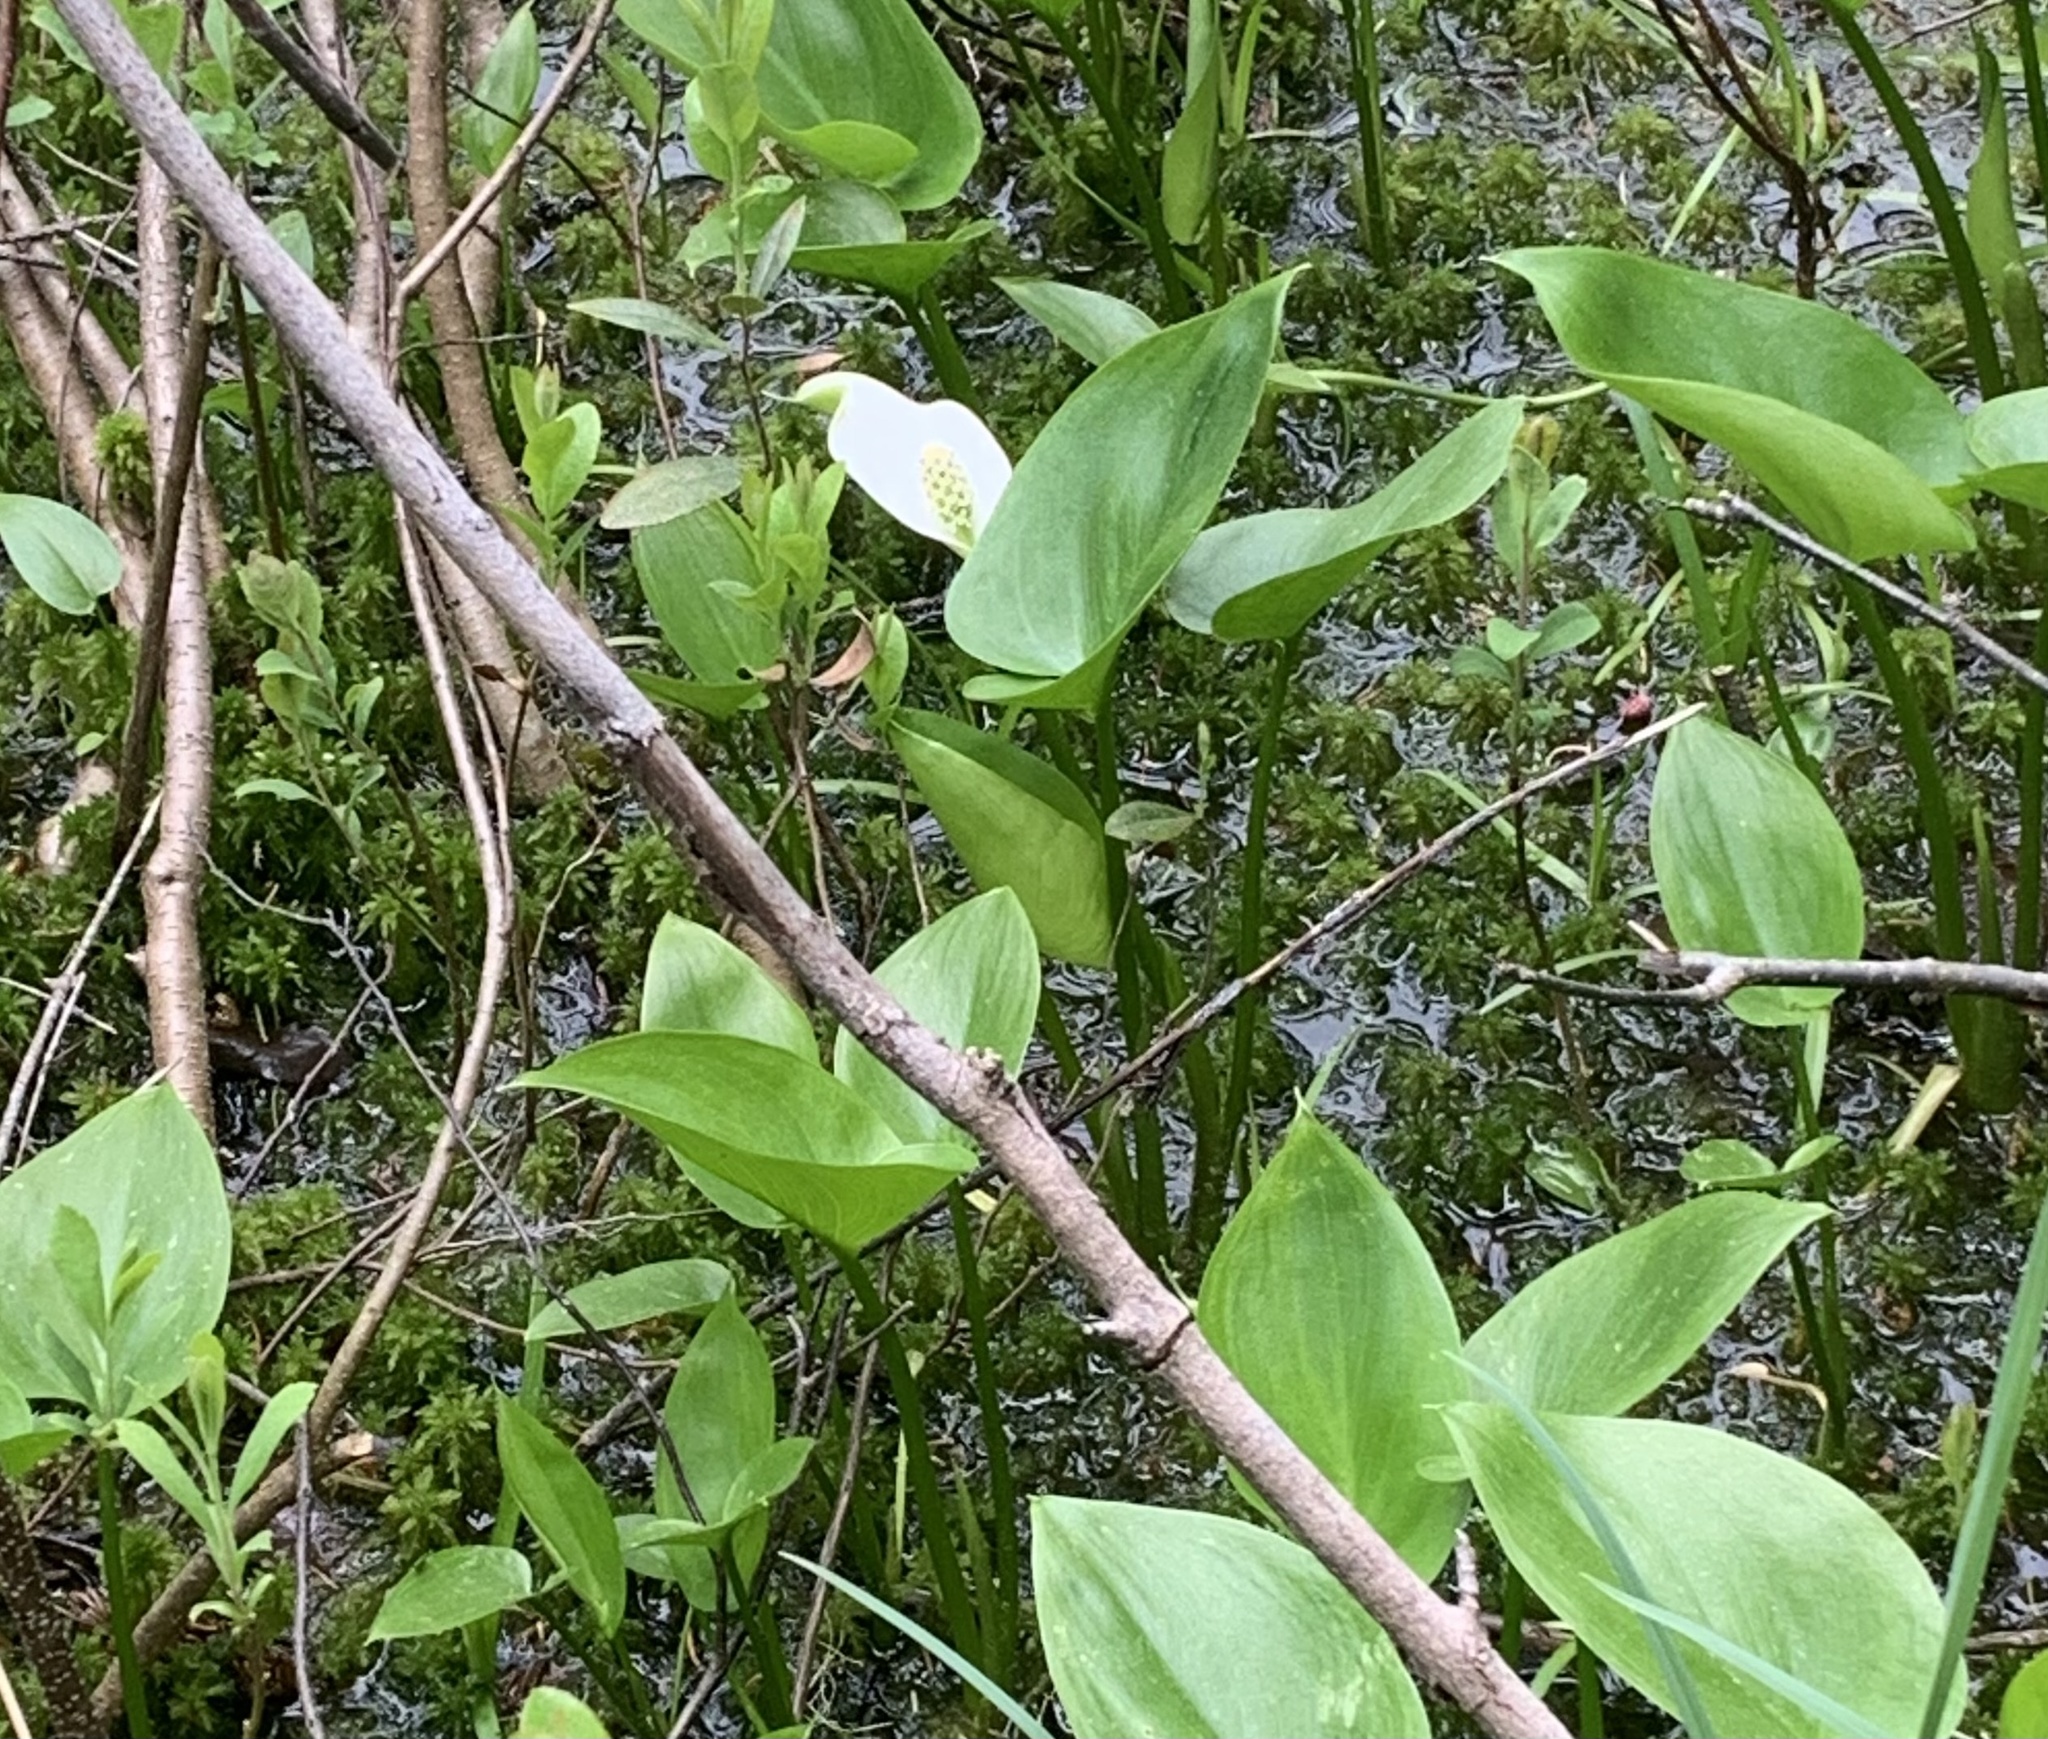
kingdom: Plantae
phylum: Tracheophyta
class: Liliopsida
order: Alismatales
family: Araceae
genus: Calla
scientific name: Calla palustris
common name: Bog arum
